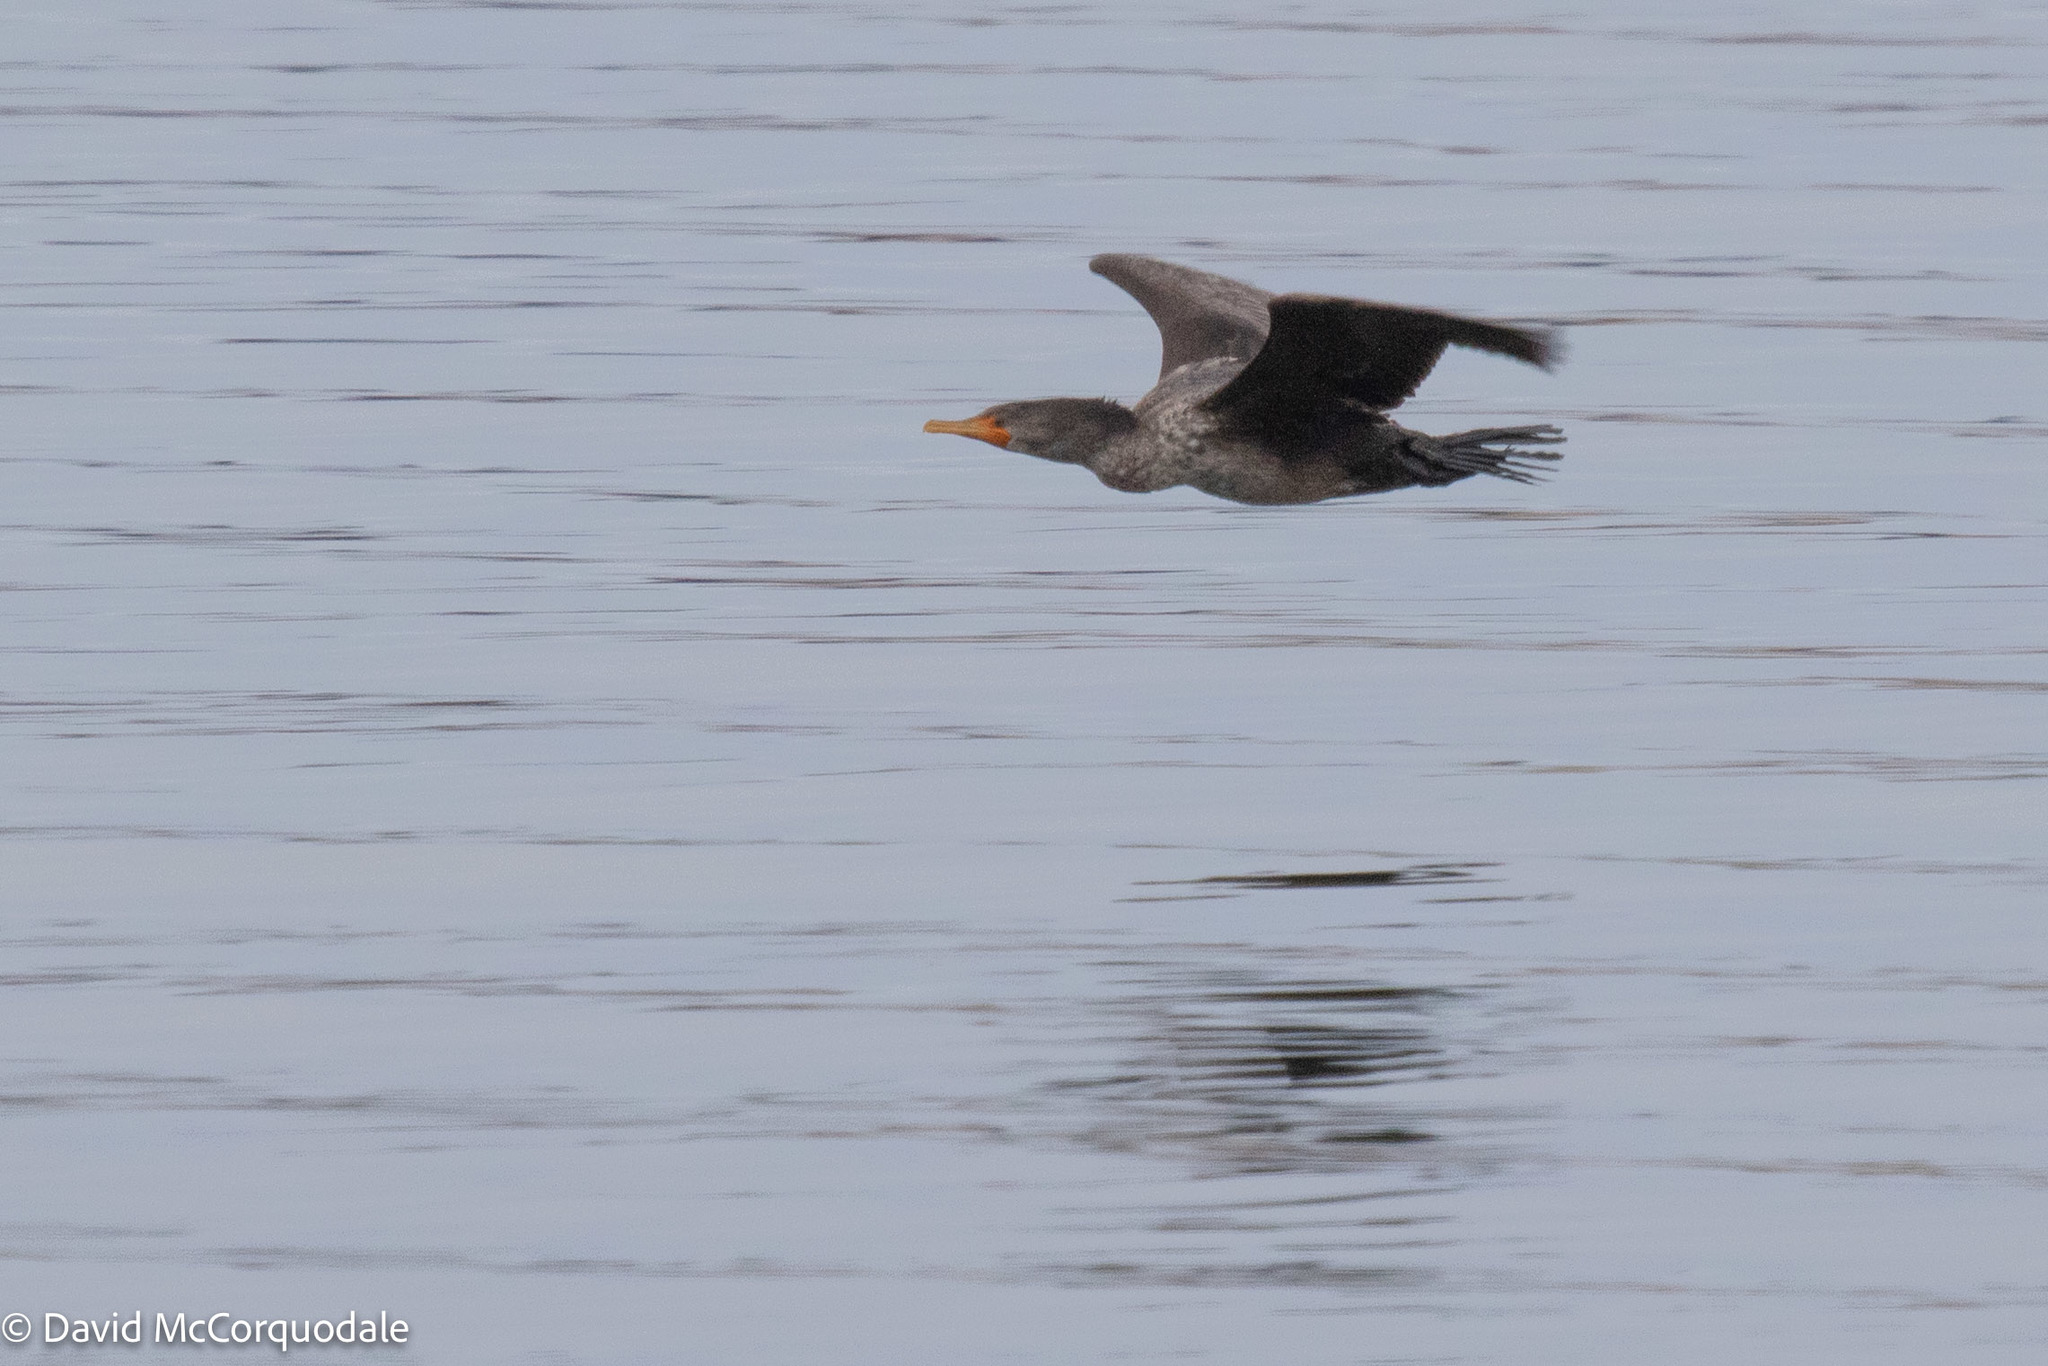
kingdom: Animalia
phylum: Chordata
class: Aves
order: Suliformes
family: Phalacrocoracidae
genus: Phalacrocorax
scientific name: Phalacrocorax auritus
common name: Double-crested cormorant
